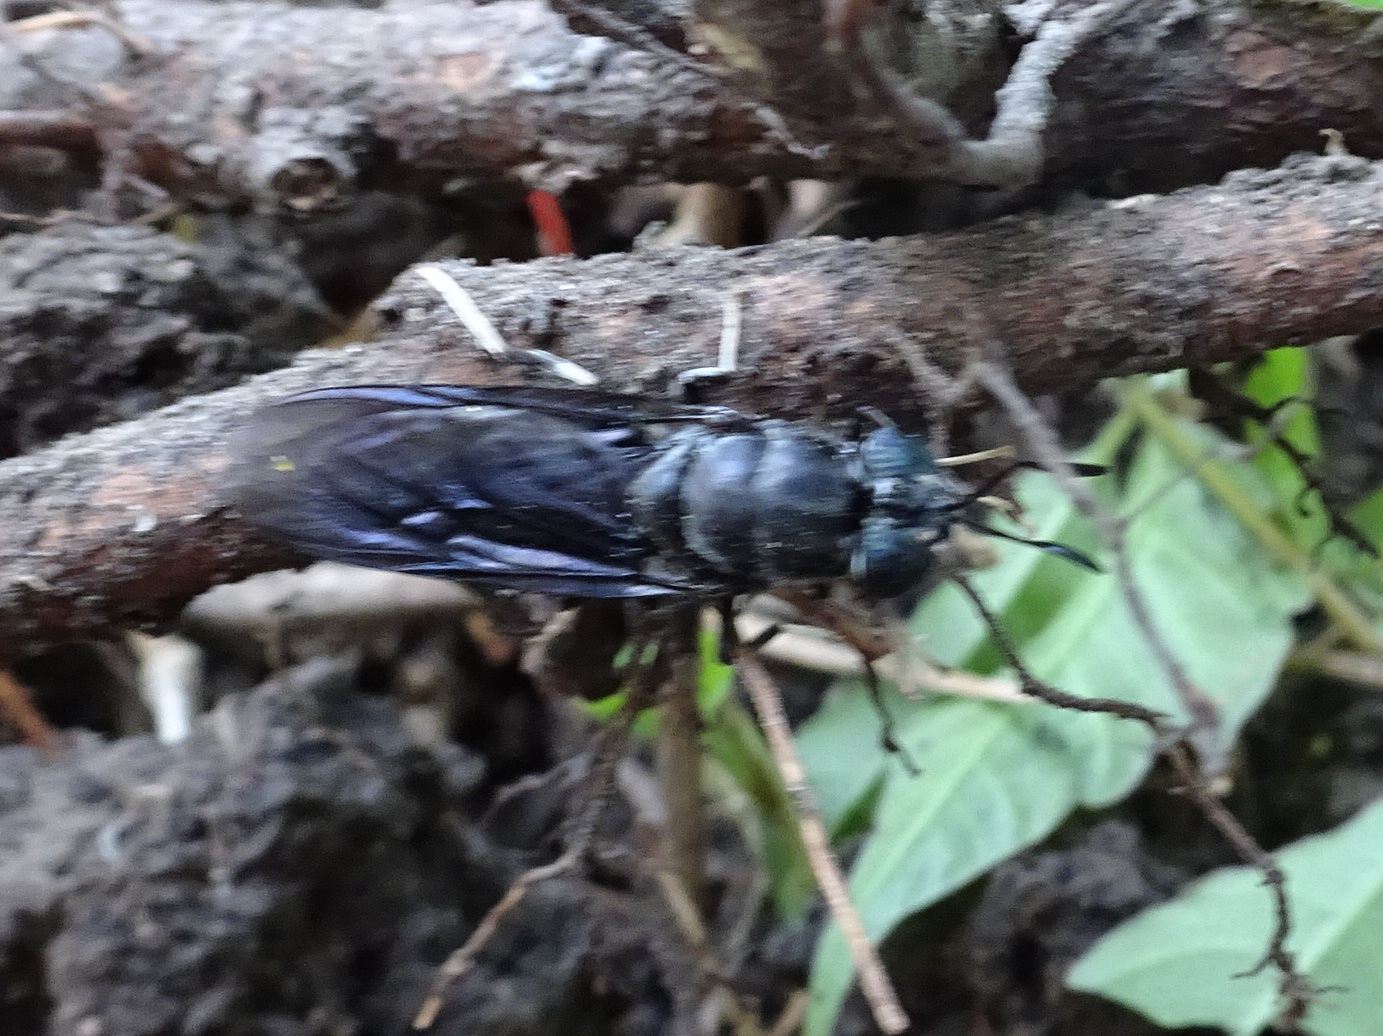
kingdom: Animalia
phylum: Arthropoda
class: Insecta
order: Diptera
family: Stratiomyidae
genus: Hermetia
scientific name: Hermetia illucens
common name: Black soldier fly
